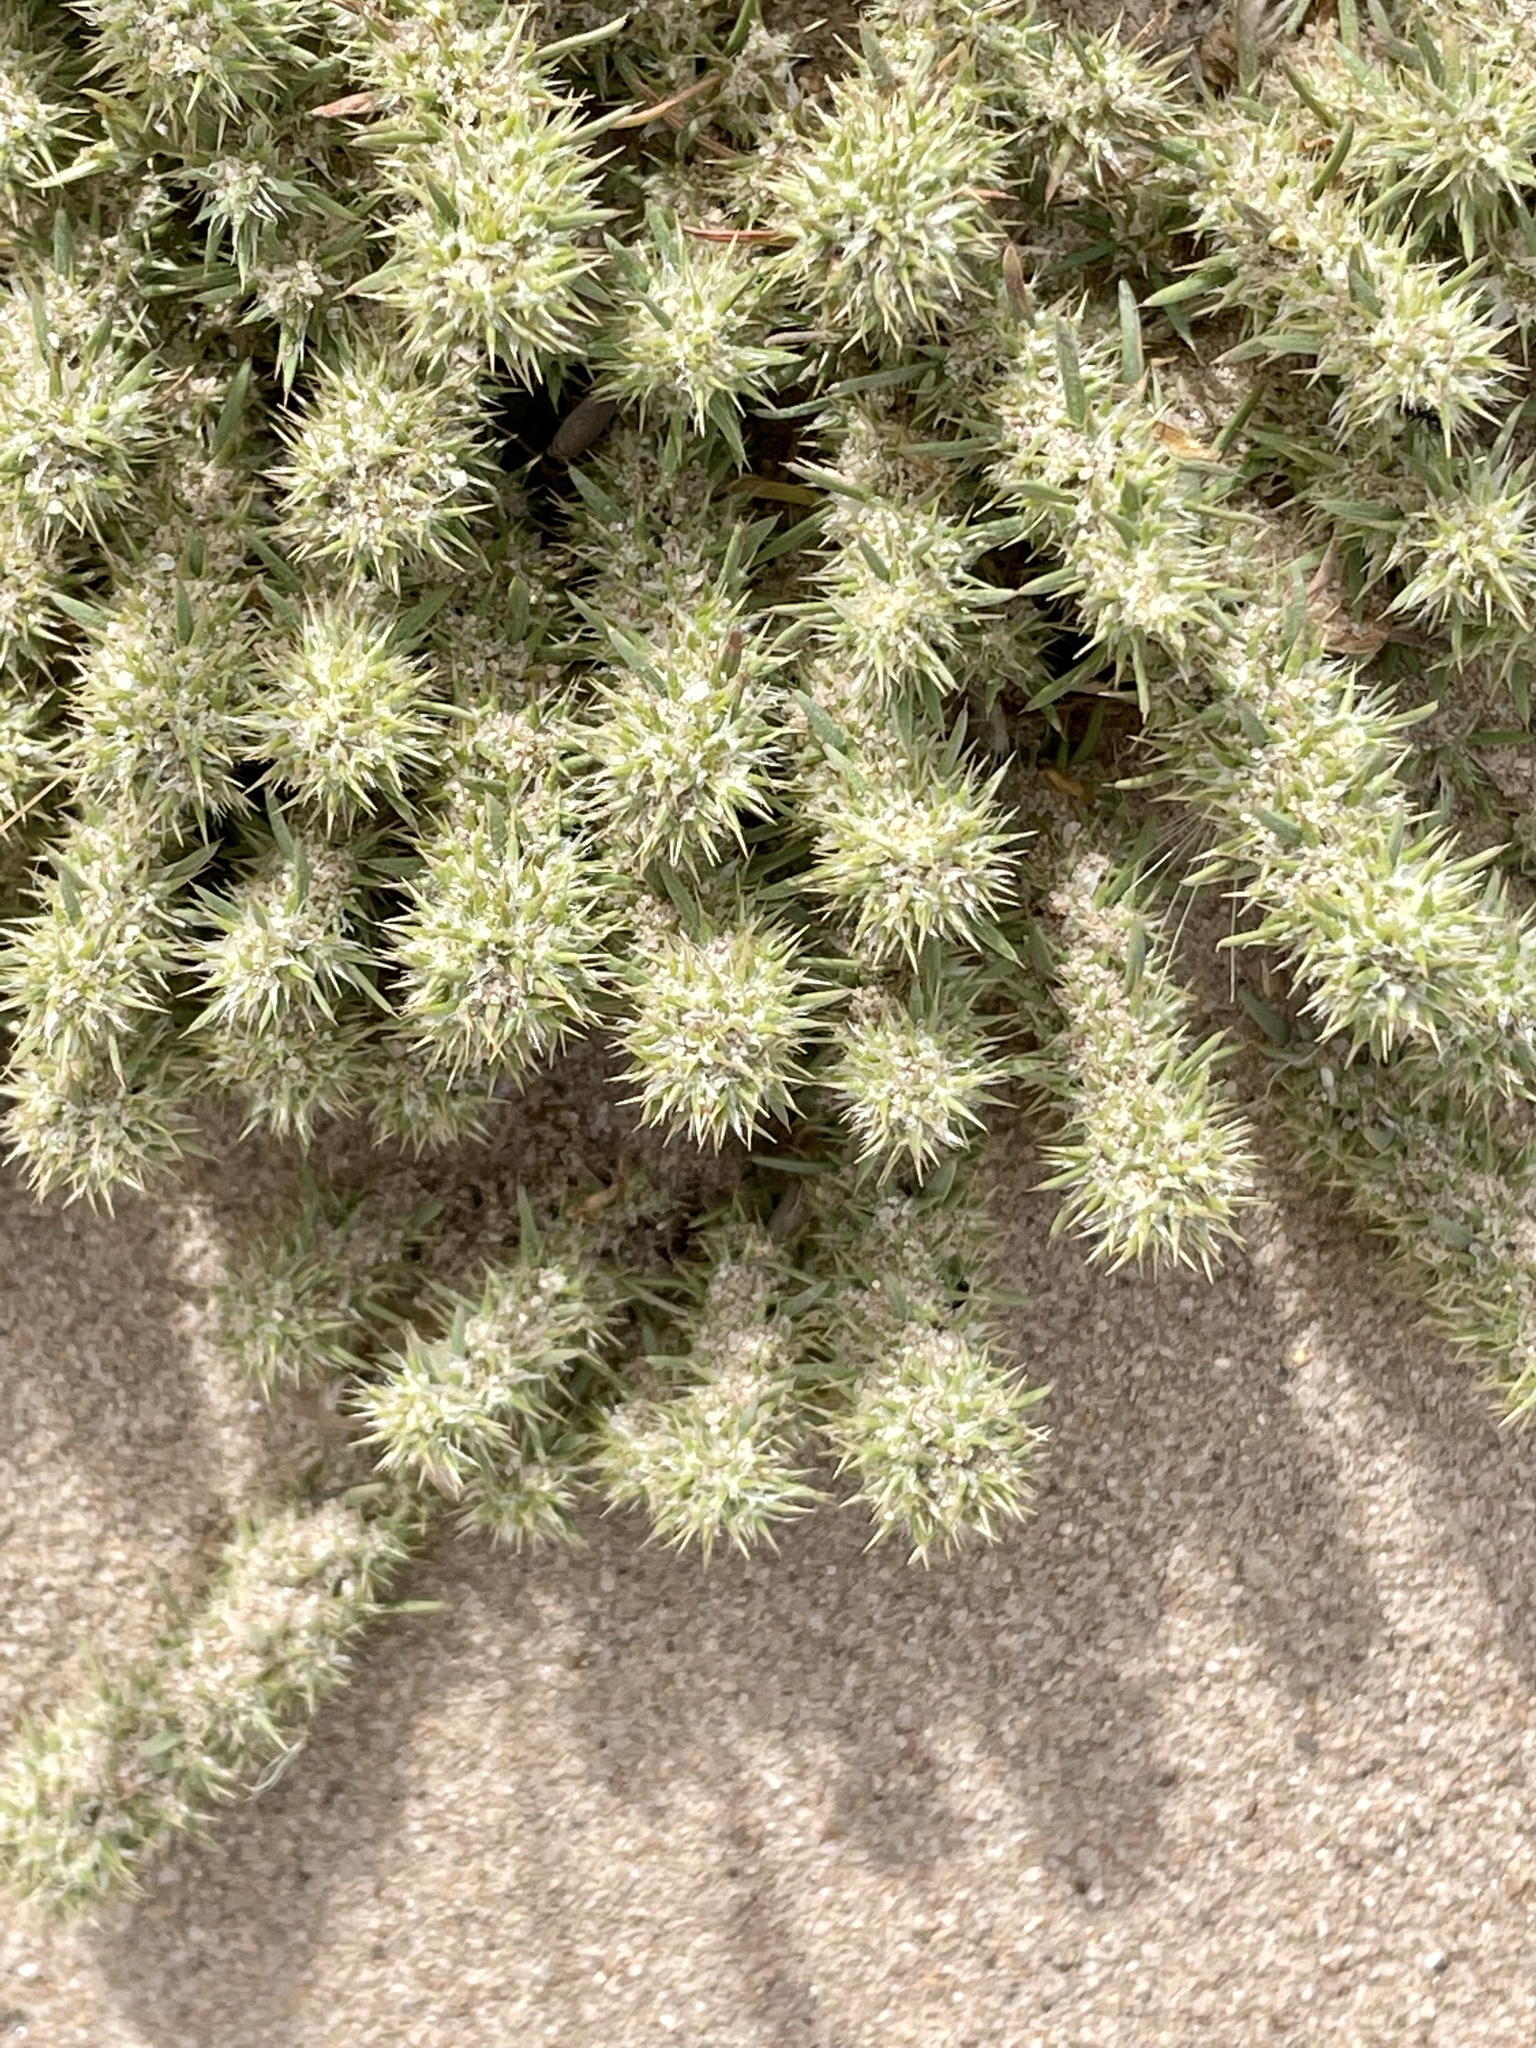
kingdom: Plantae
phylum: Tracheophyta
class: Magnoliopsida
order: Caryophyllales
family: Caryophyllaceae
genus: Cardionema
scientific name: Cardionema ramosissima
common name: Sandcarpet
